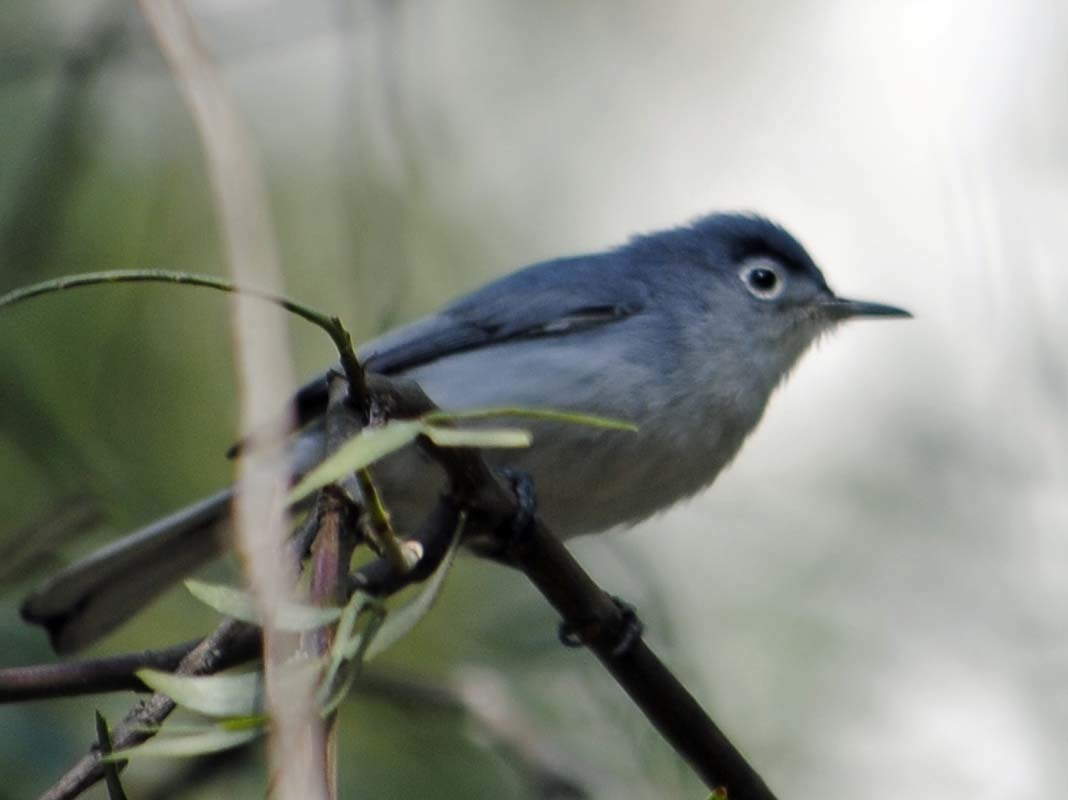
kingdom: Animalia
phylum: Chordata
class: Aves
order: Passeriformes
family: Polioptilidae
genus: Polioptila
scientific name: Polioptila caerulea
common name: Blue-gray gnatcatcher
